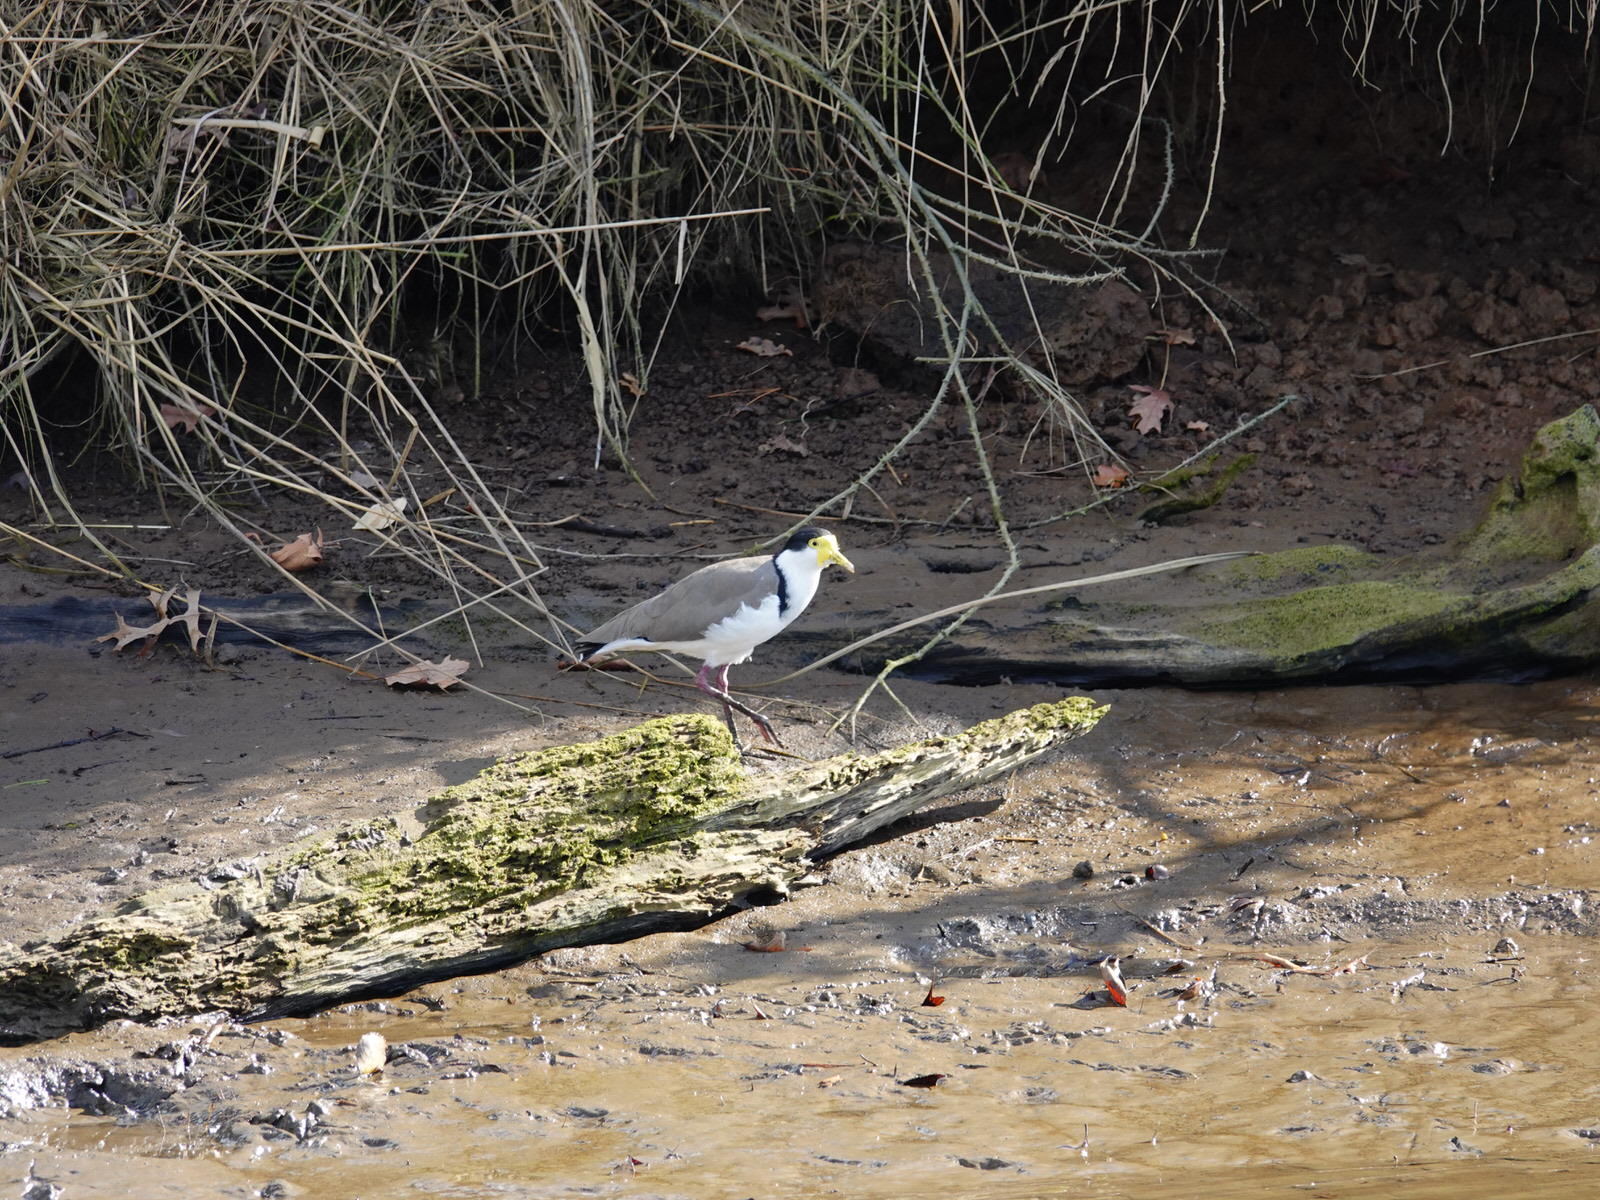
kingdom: Animalia
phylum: Chordata
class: Aves
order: Charadriiformes
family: Charadriidae
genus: Vanellus
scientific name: Vanellus miles
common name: Masked lapwing
